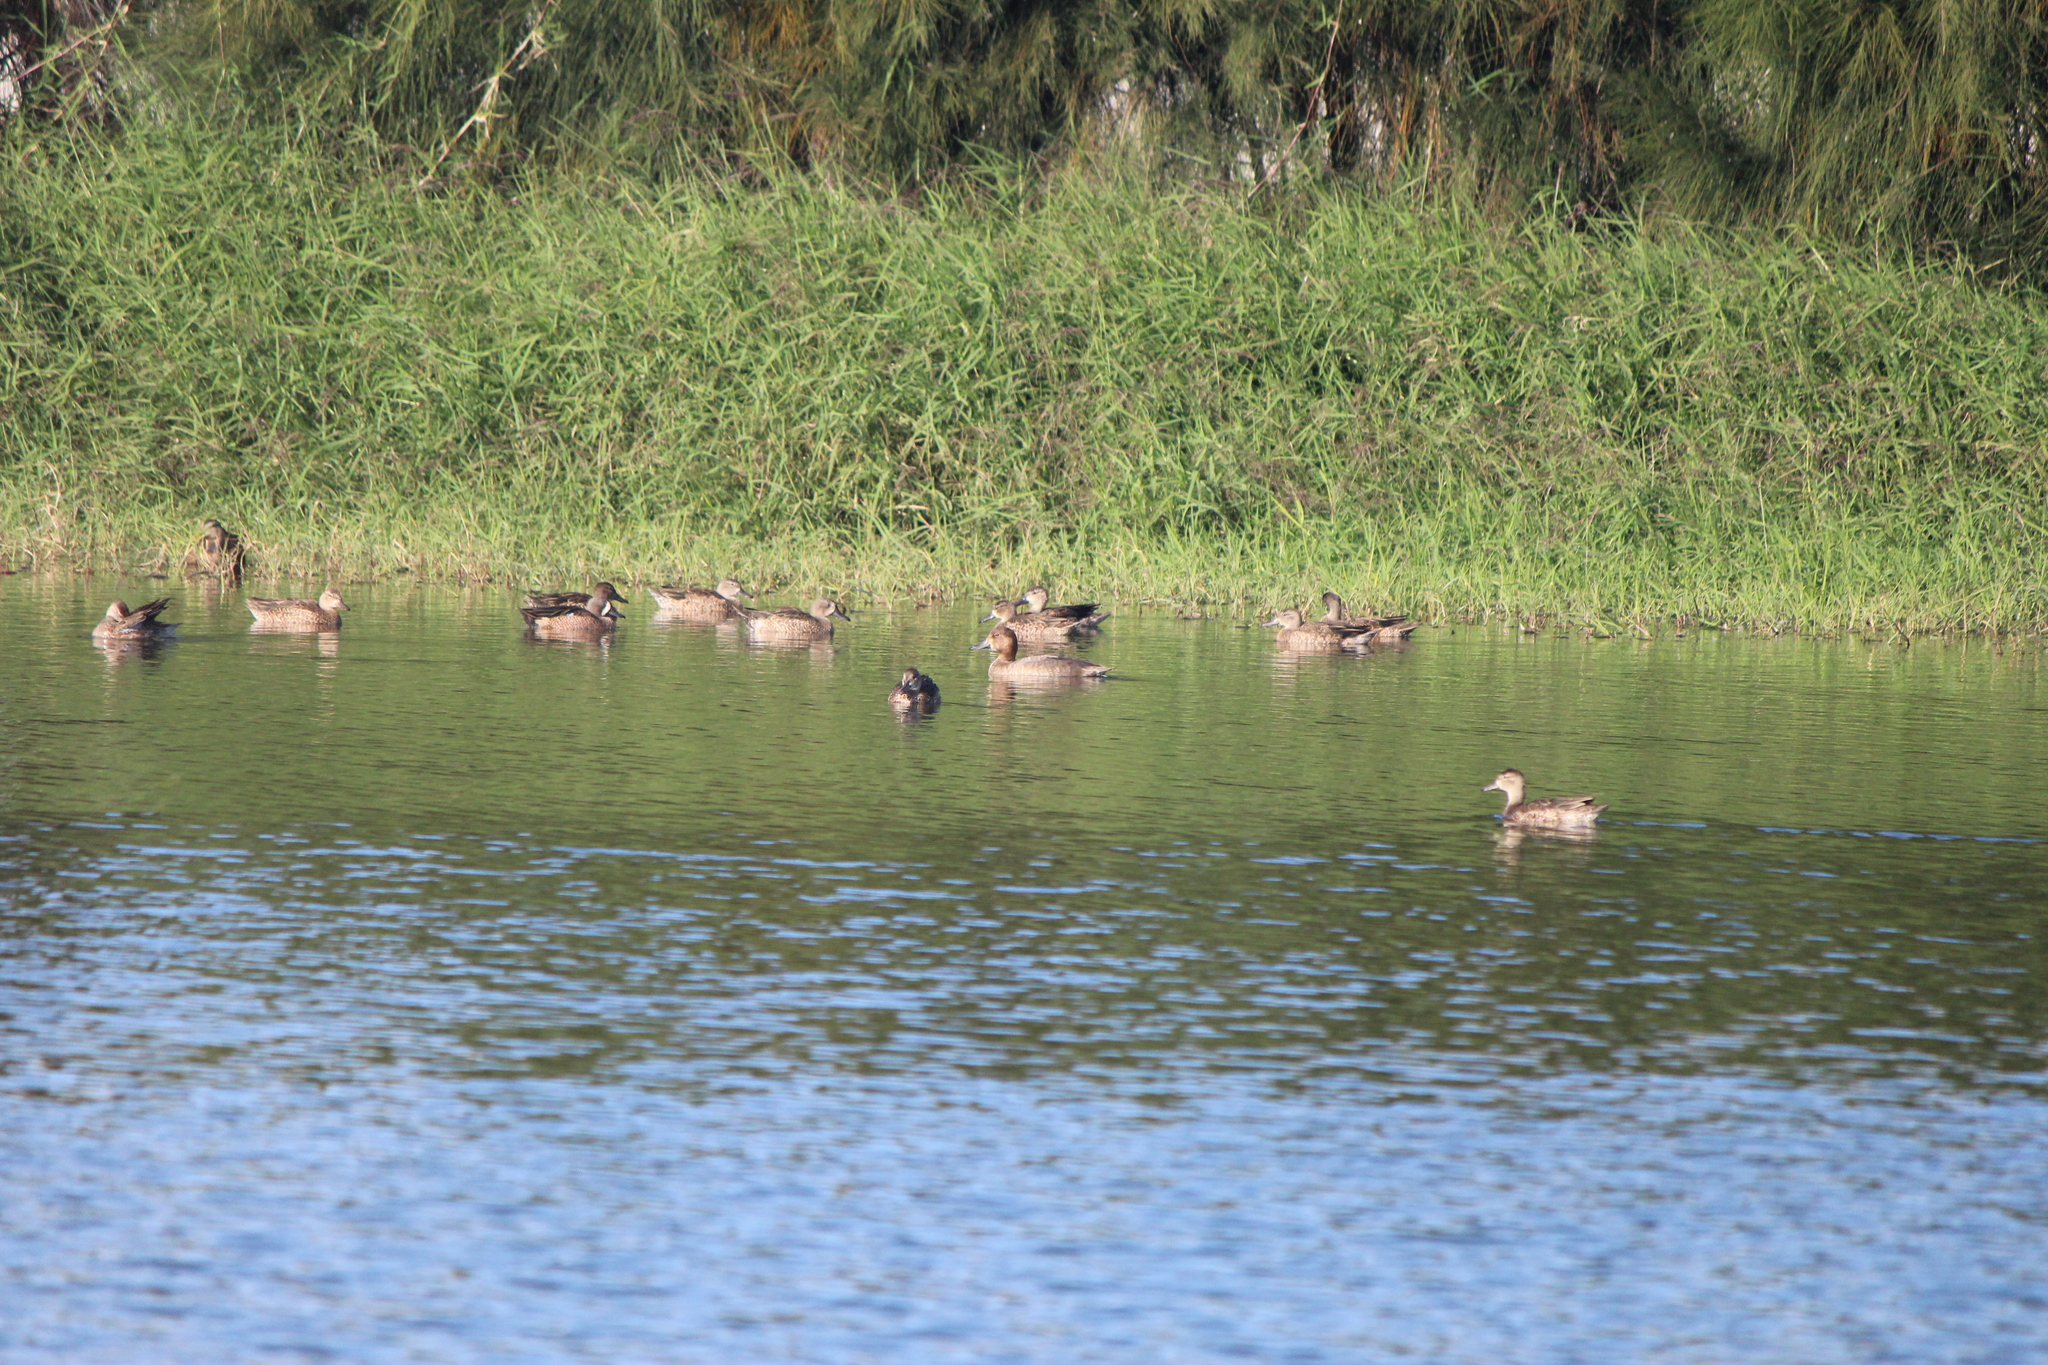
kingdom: Animalia
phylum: Chordata
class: Aves
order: Anseriformes
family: Anatidae
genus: Spatula
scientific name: Spatula discors
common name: Blue-winged teal
